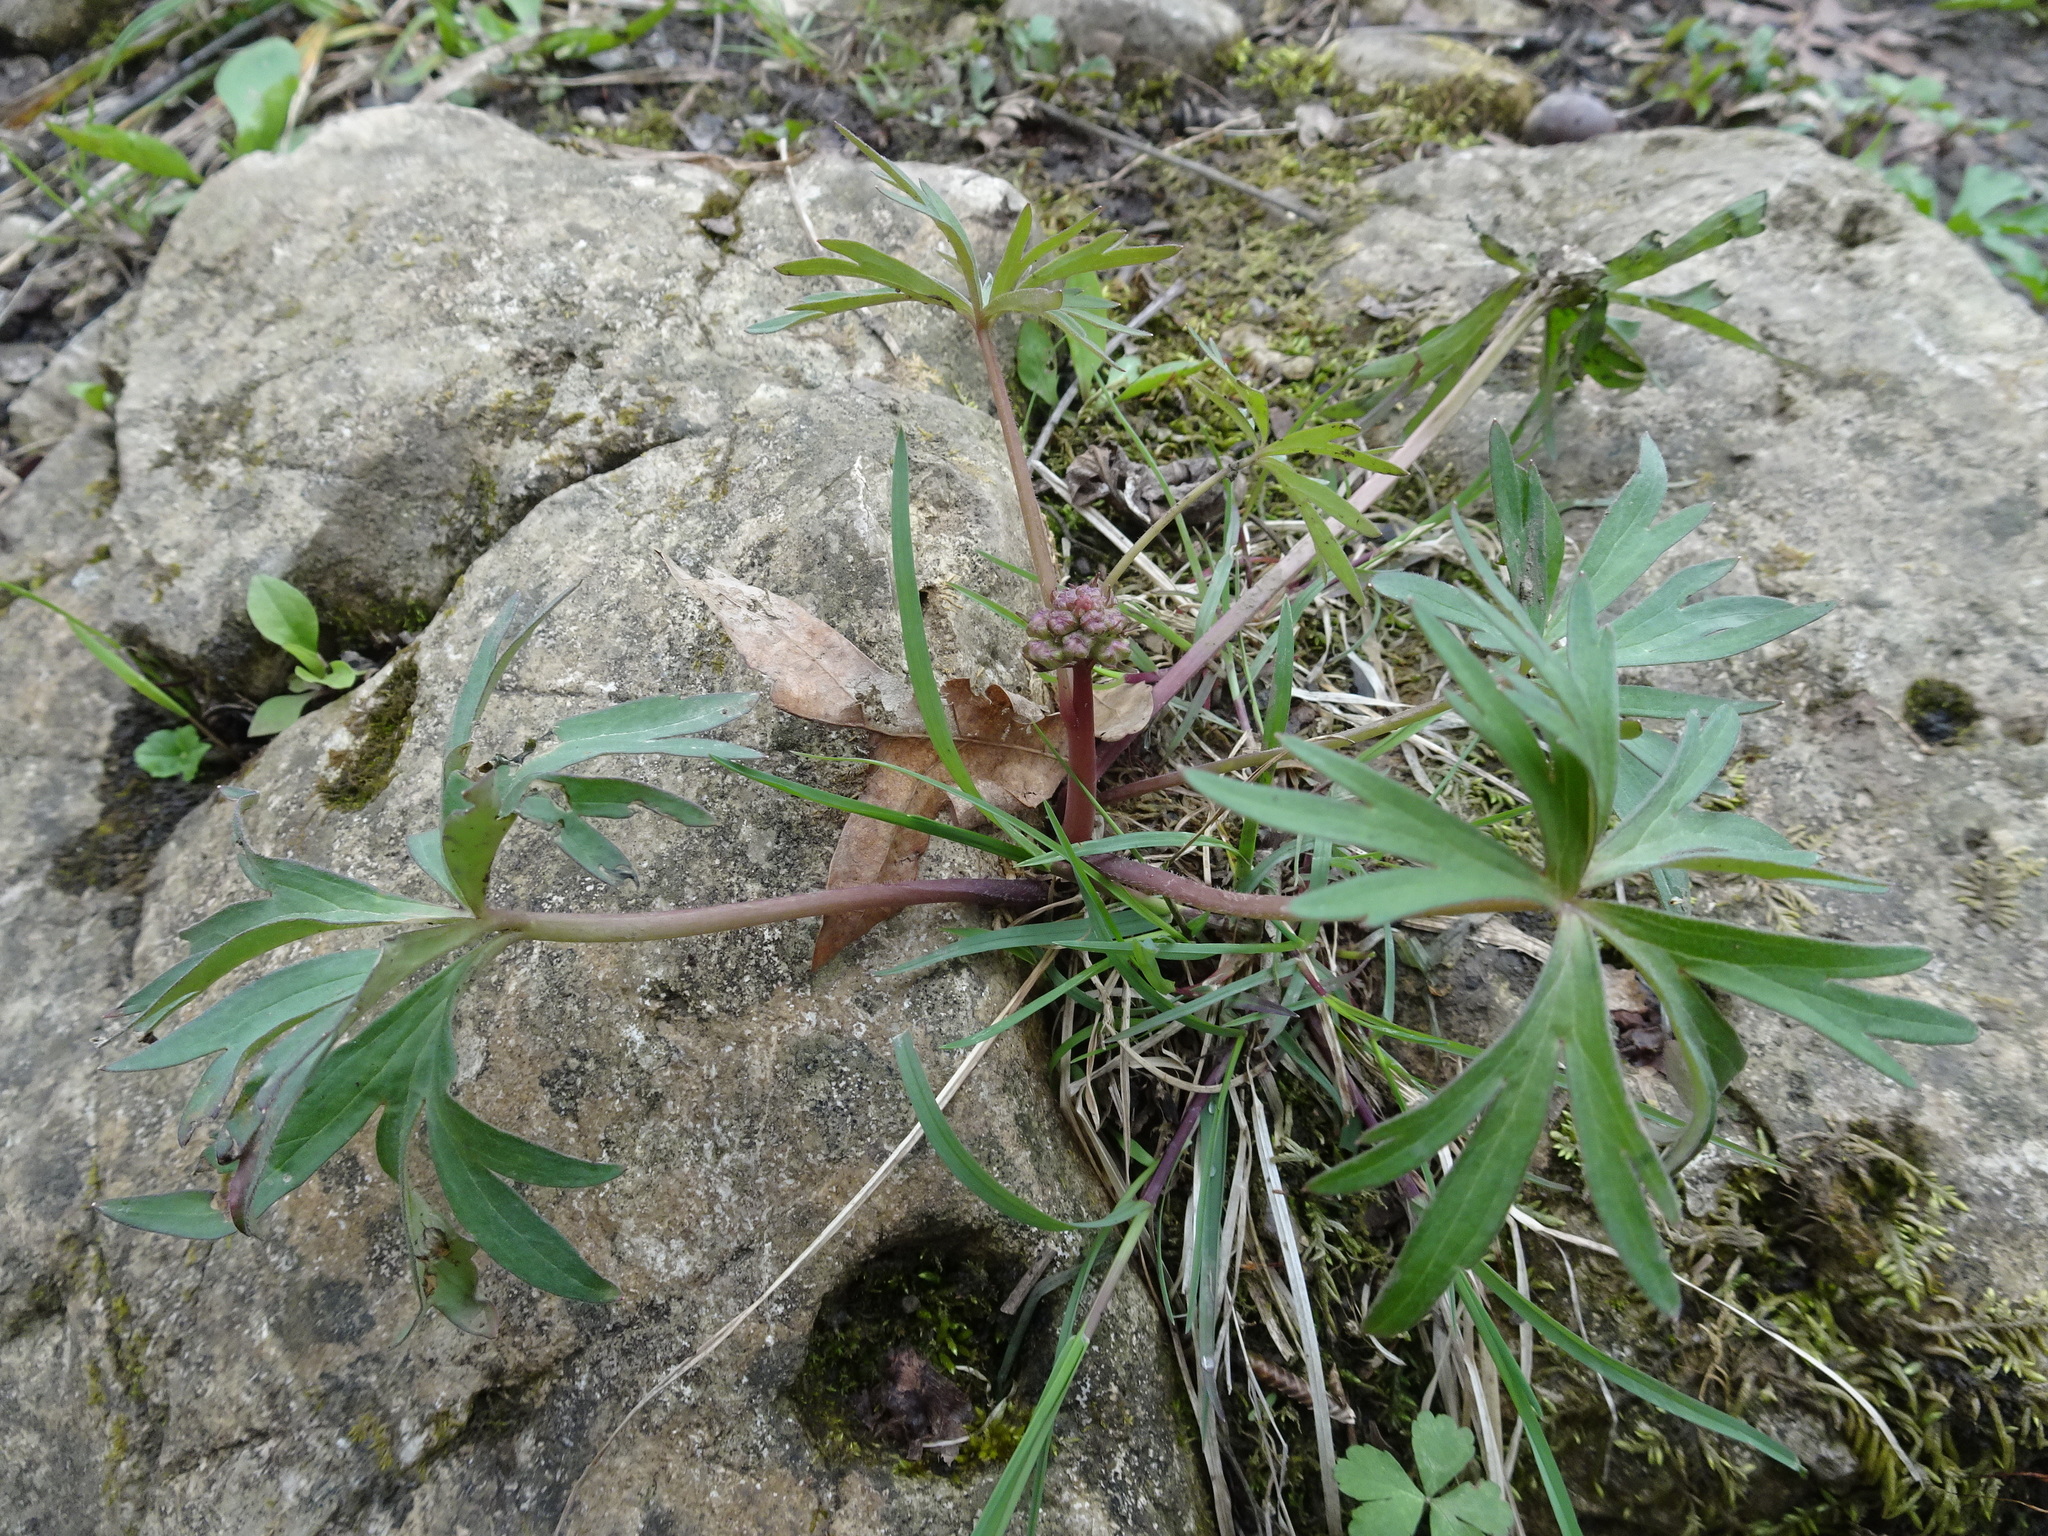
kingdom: Plantae
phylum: Tracheophyta
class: Magnoliopsida
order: Ranunculales
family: Ranunculaceae
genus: Delphinium
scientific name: Delphinium tricorne
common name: Dwarf larkspur
